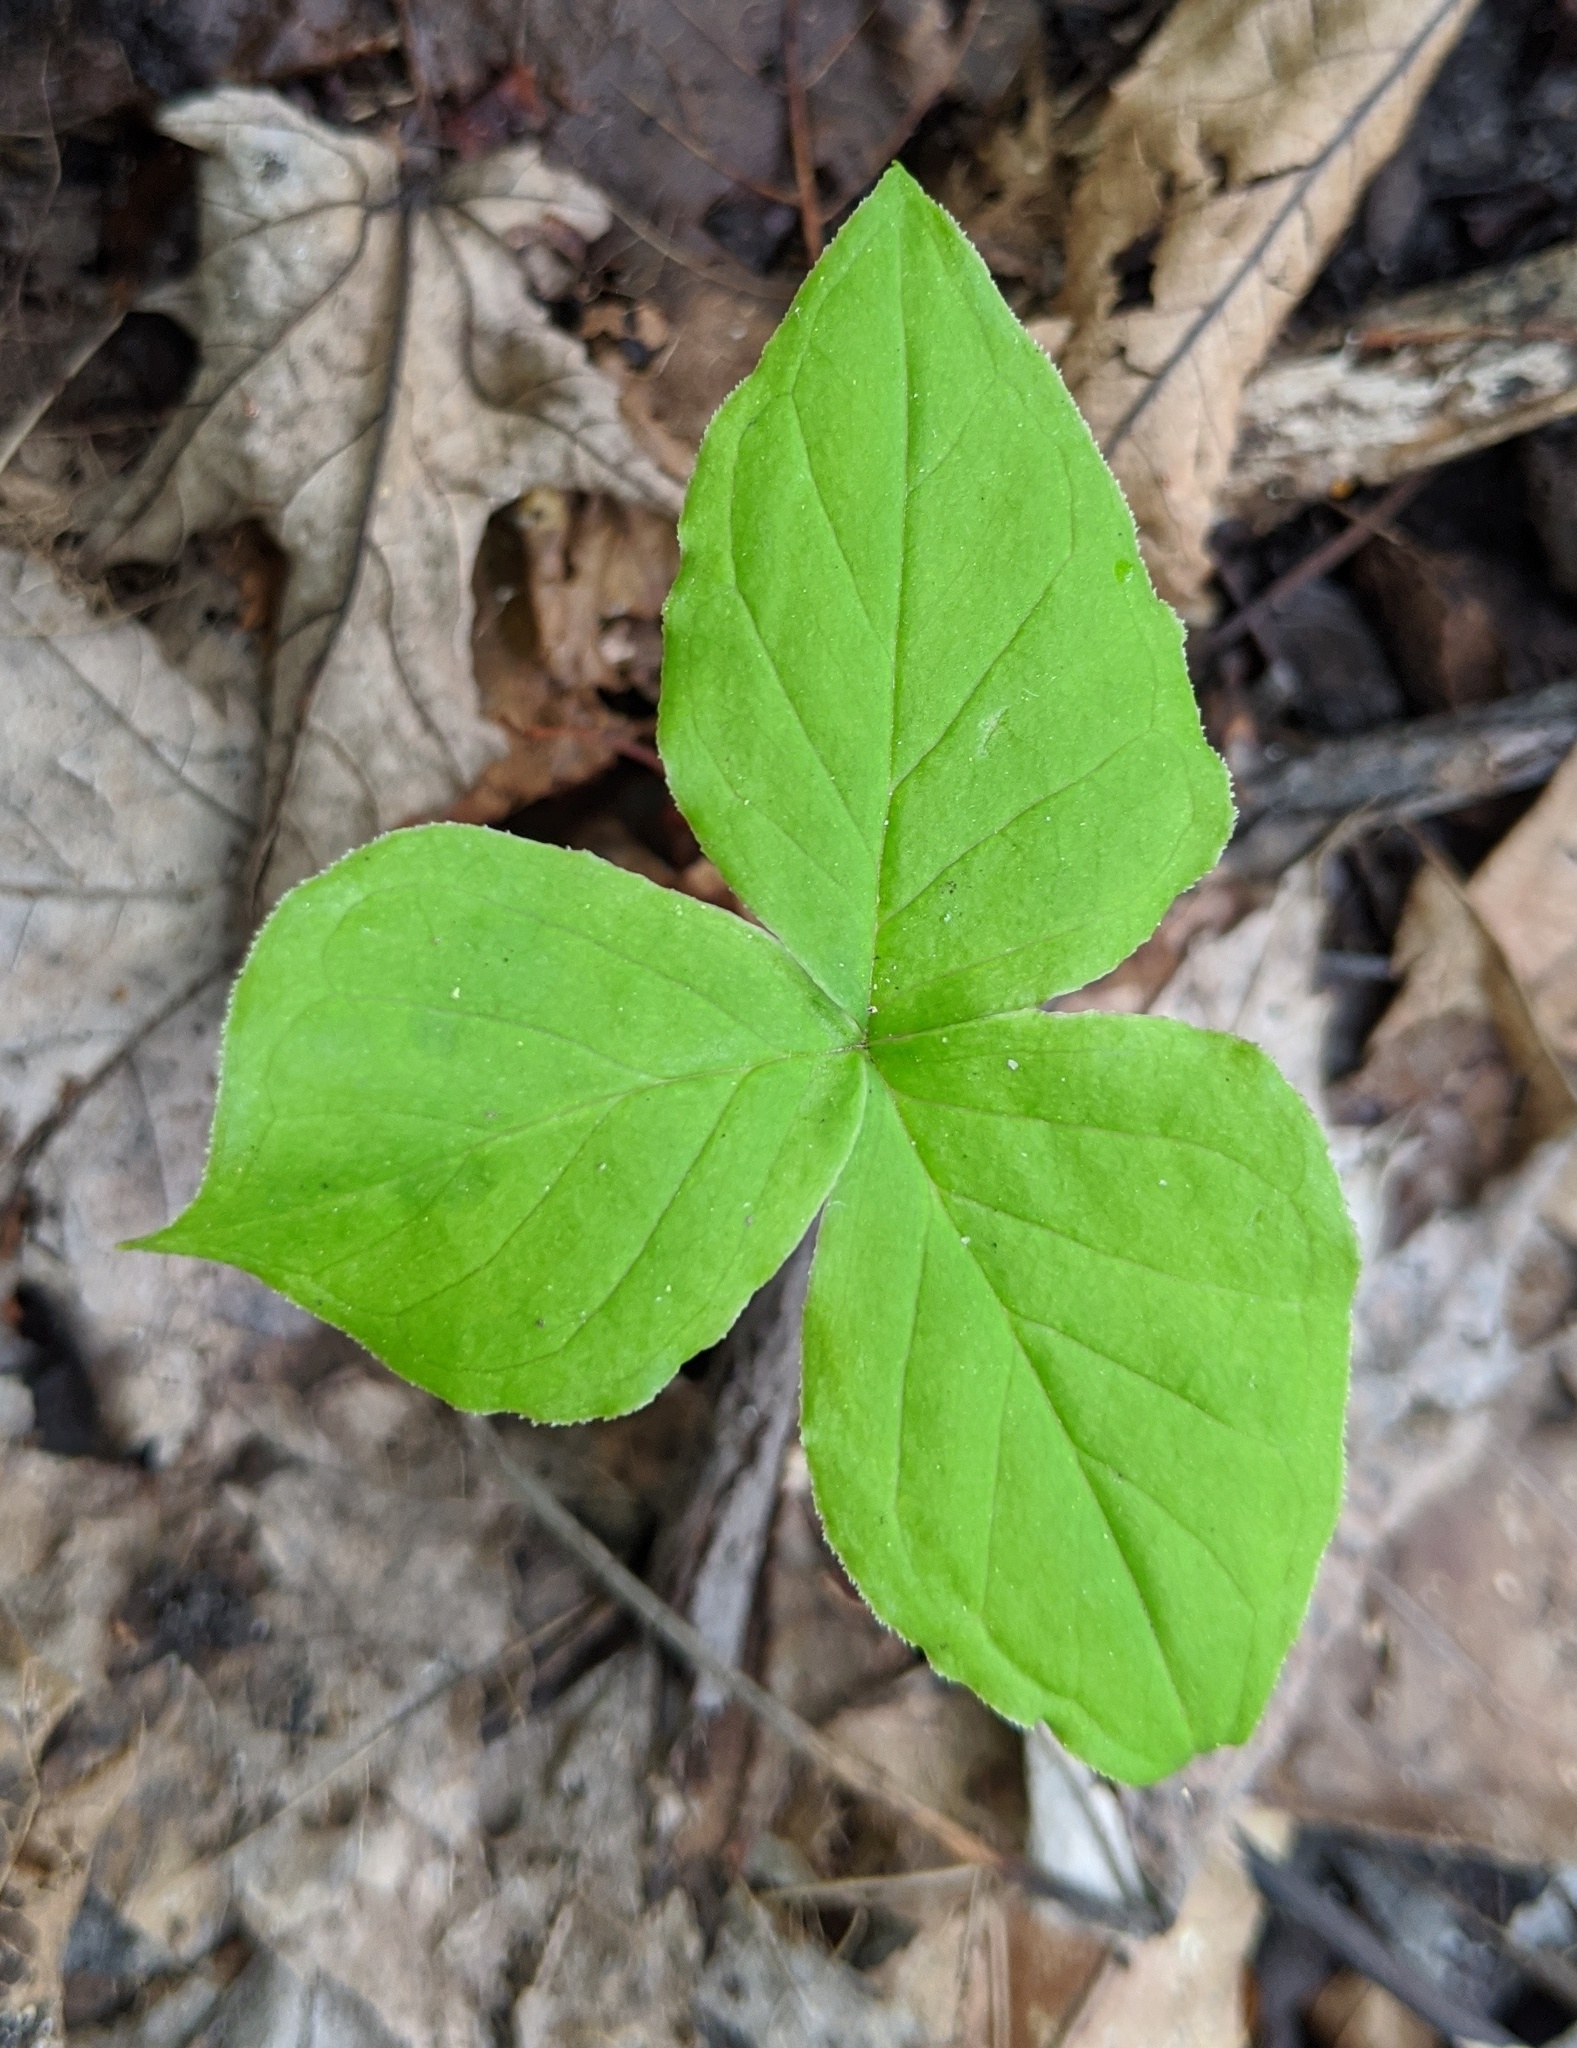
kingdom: Plantae
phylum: Tracheophyta
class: Liliopsida
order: Alismatales
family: Araceae
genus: Arisaema
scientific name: Arisaema triphyllum
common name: Jack-in-the-pulpit
